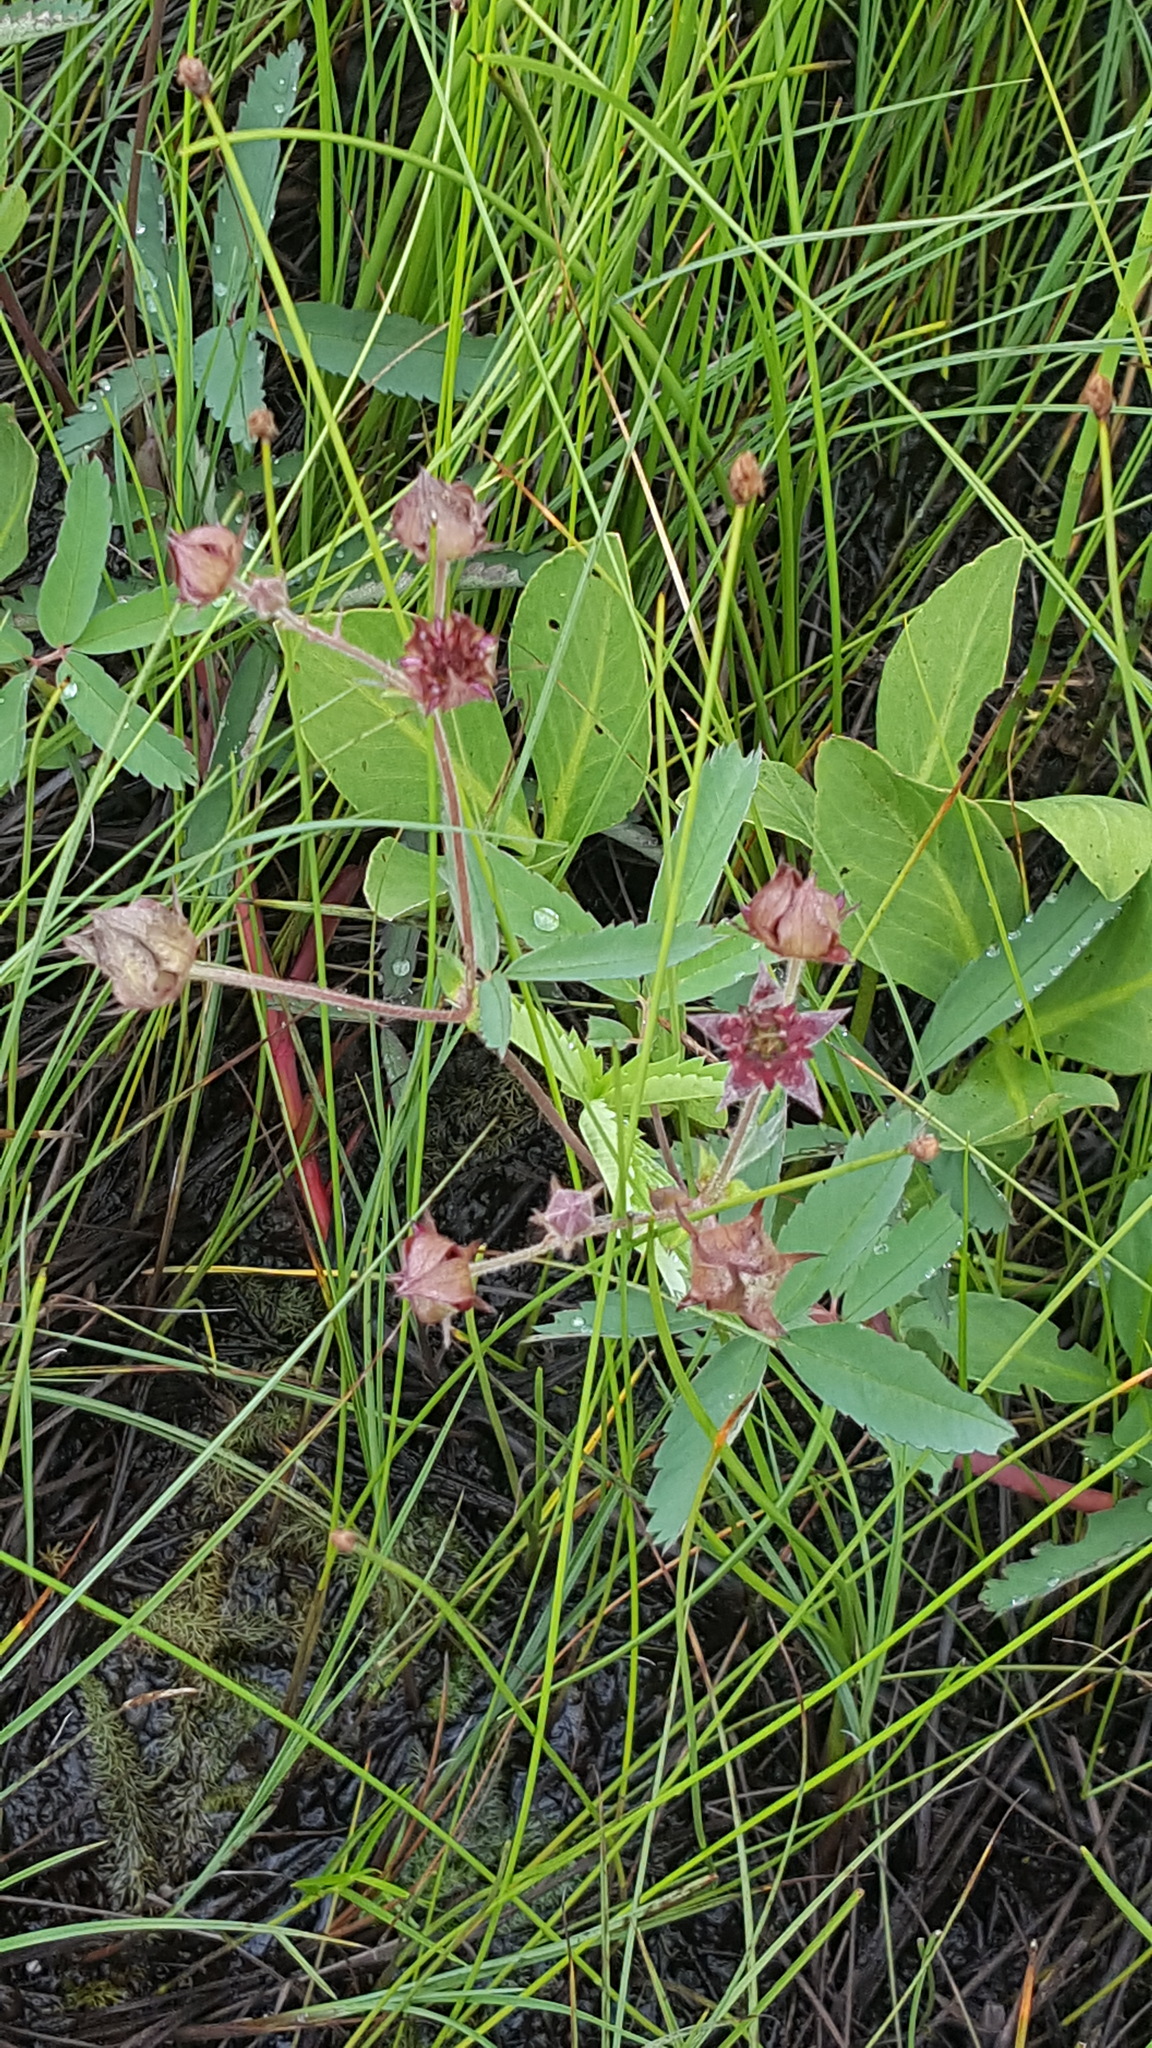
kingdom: Plantae
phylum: Tracheophyta
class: Magnoliopsida
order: Rosales
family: Rosaceae
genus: Comarum
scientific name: Comarum palustre
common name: Marsh cinquefoil
